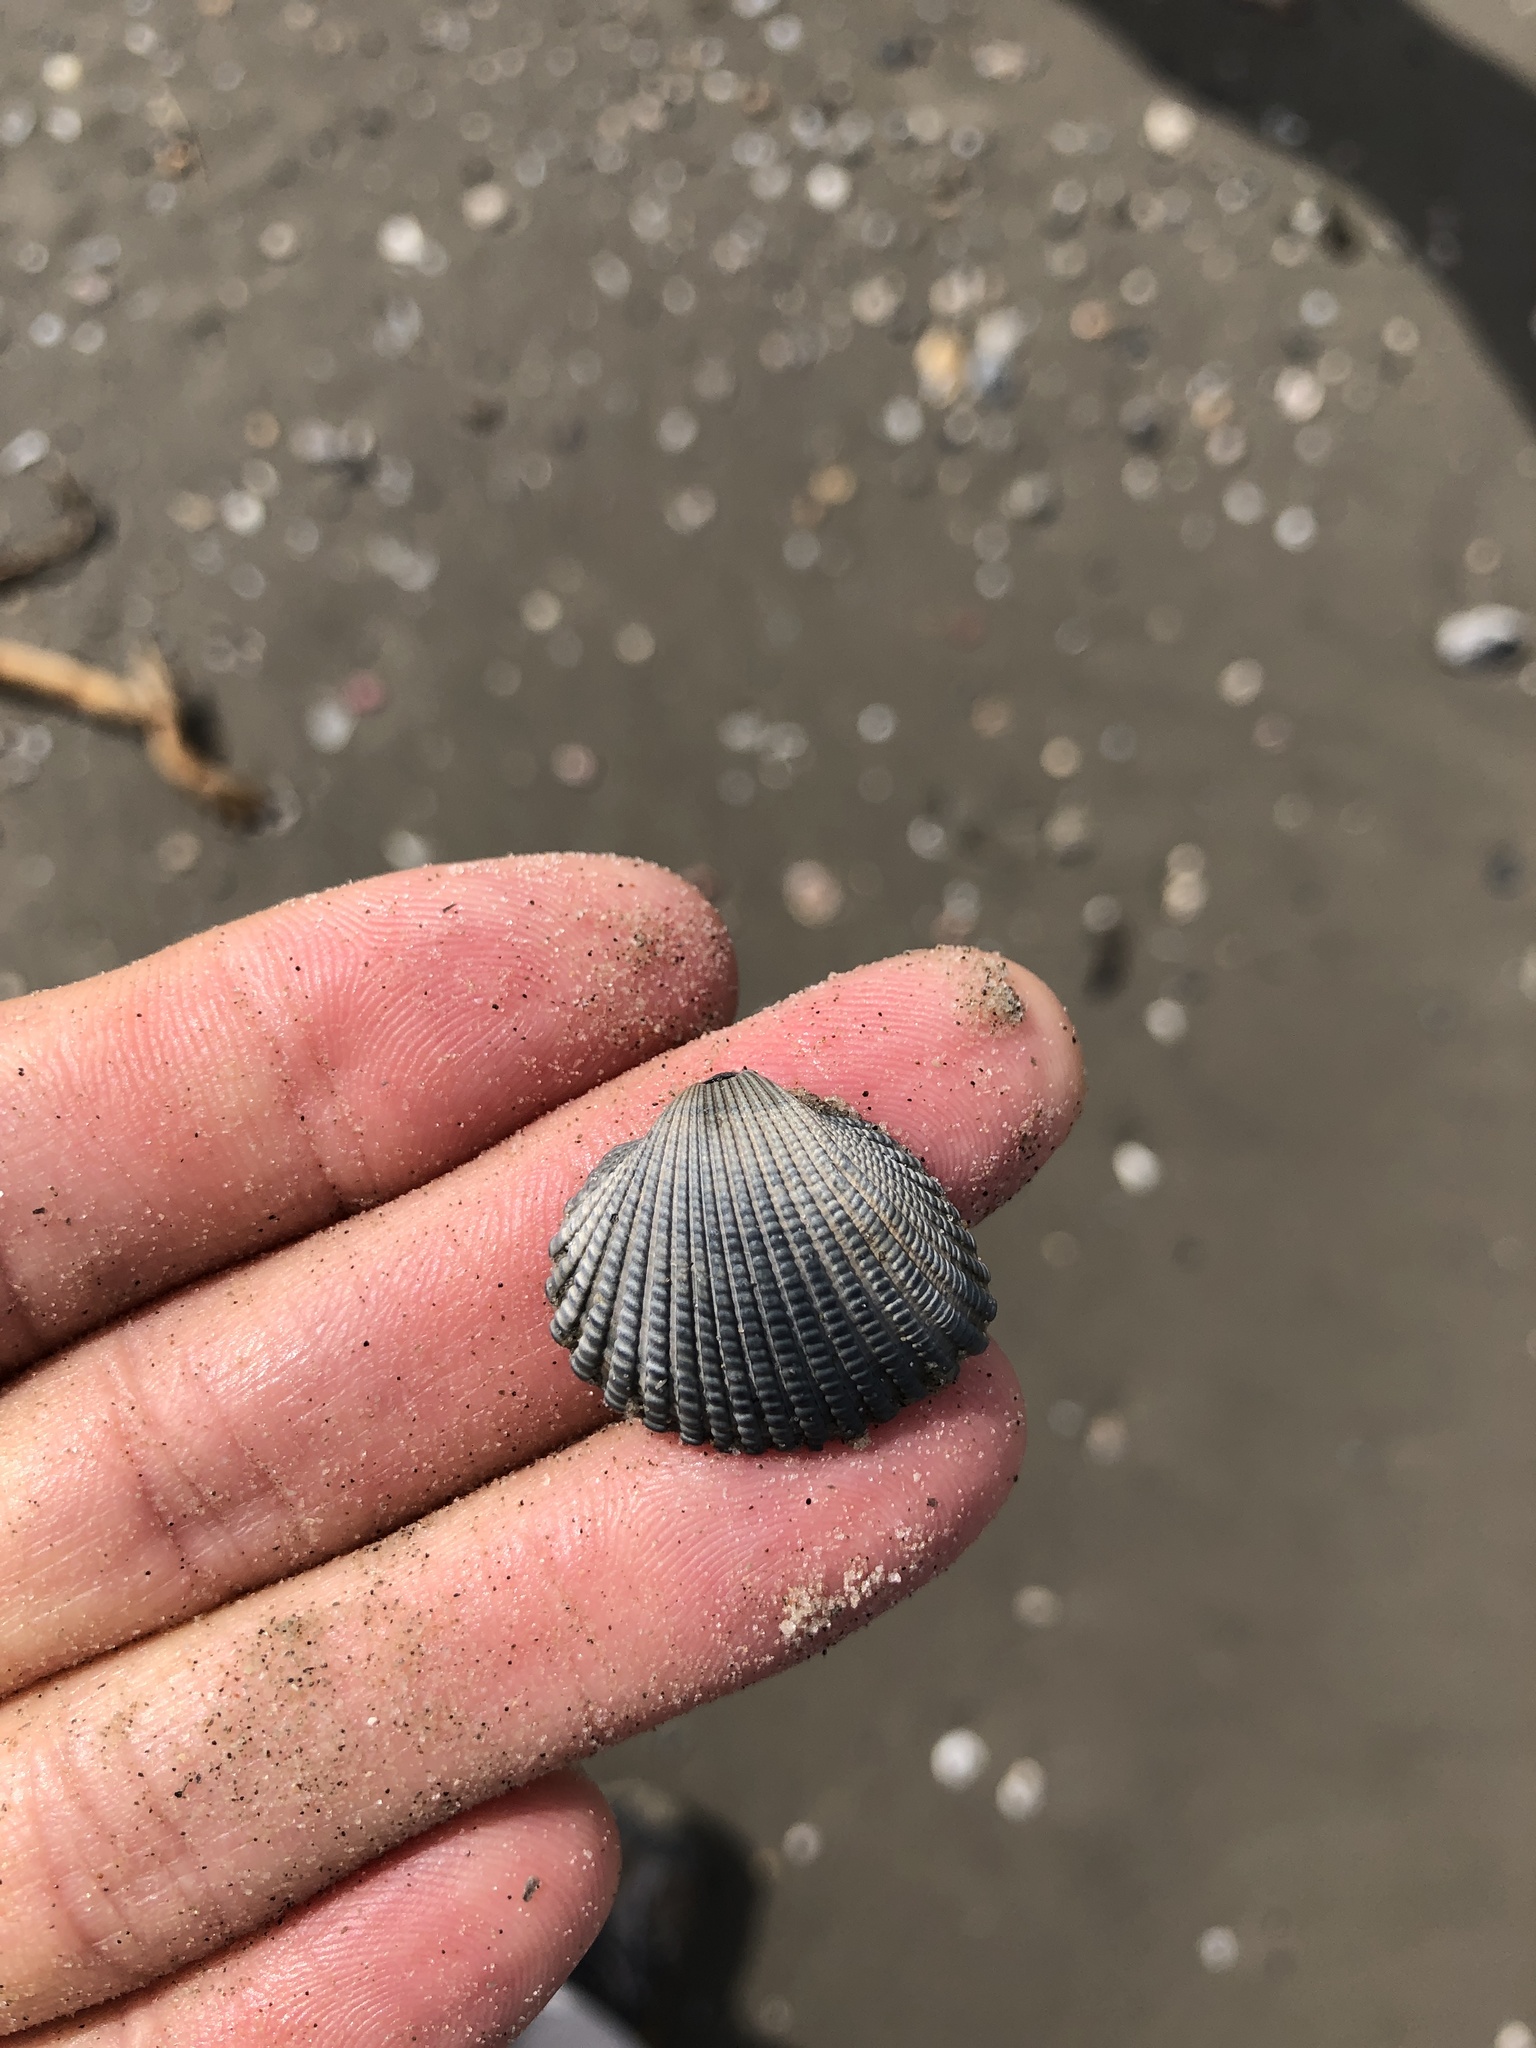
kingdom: Animalia
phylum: Mollusca
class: Bivalvia
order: Arcida
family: Arcidae
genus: Anadara
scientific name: Anadara brasiliana
